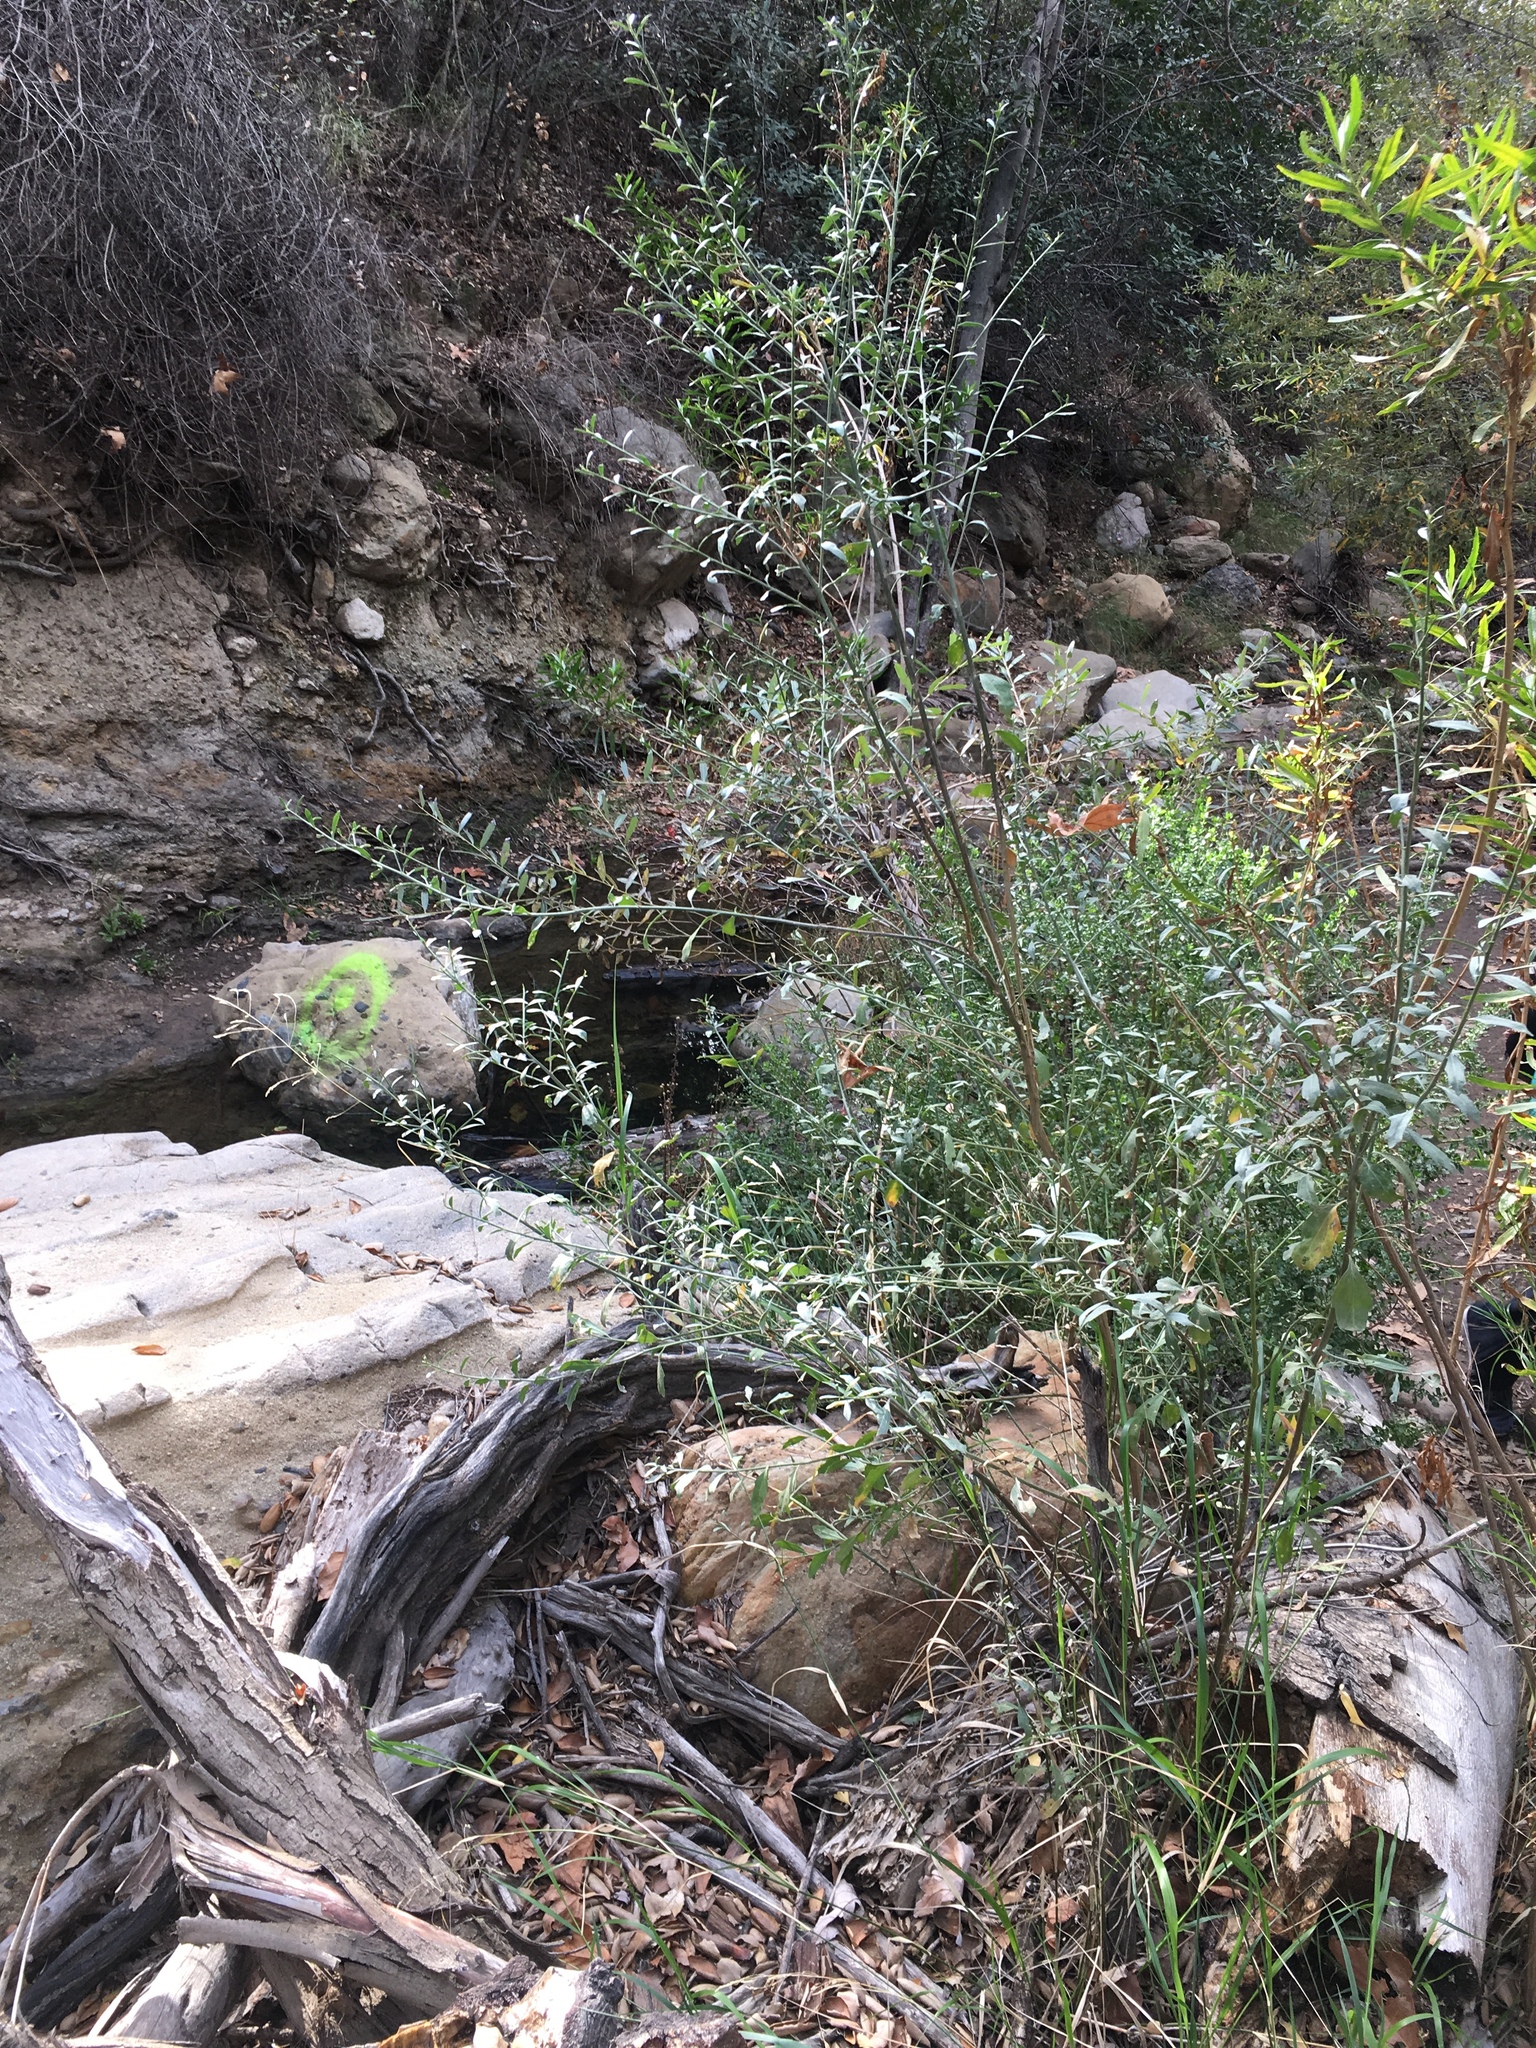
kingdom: Plantae
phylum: Tracheophyta
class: Magnoliopsida
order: Asterales
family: Asteraceae
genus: Baccharis
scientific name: Baccharis salicina
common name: Willow baccharis
